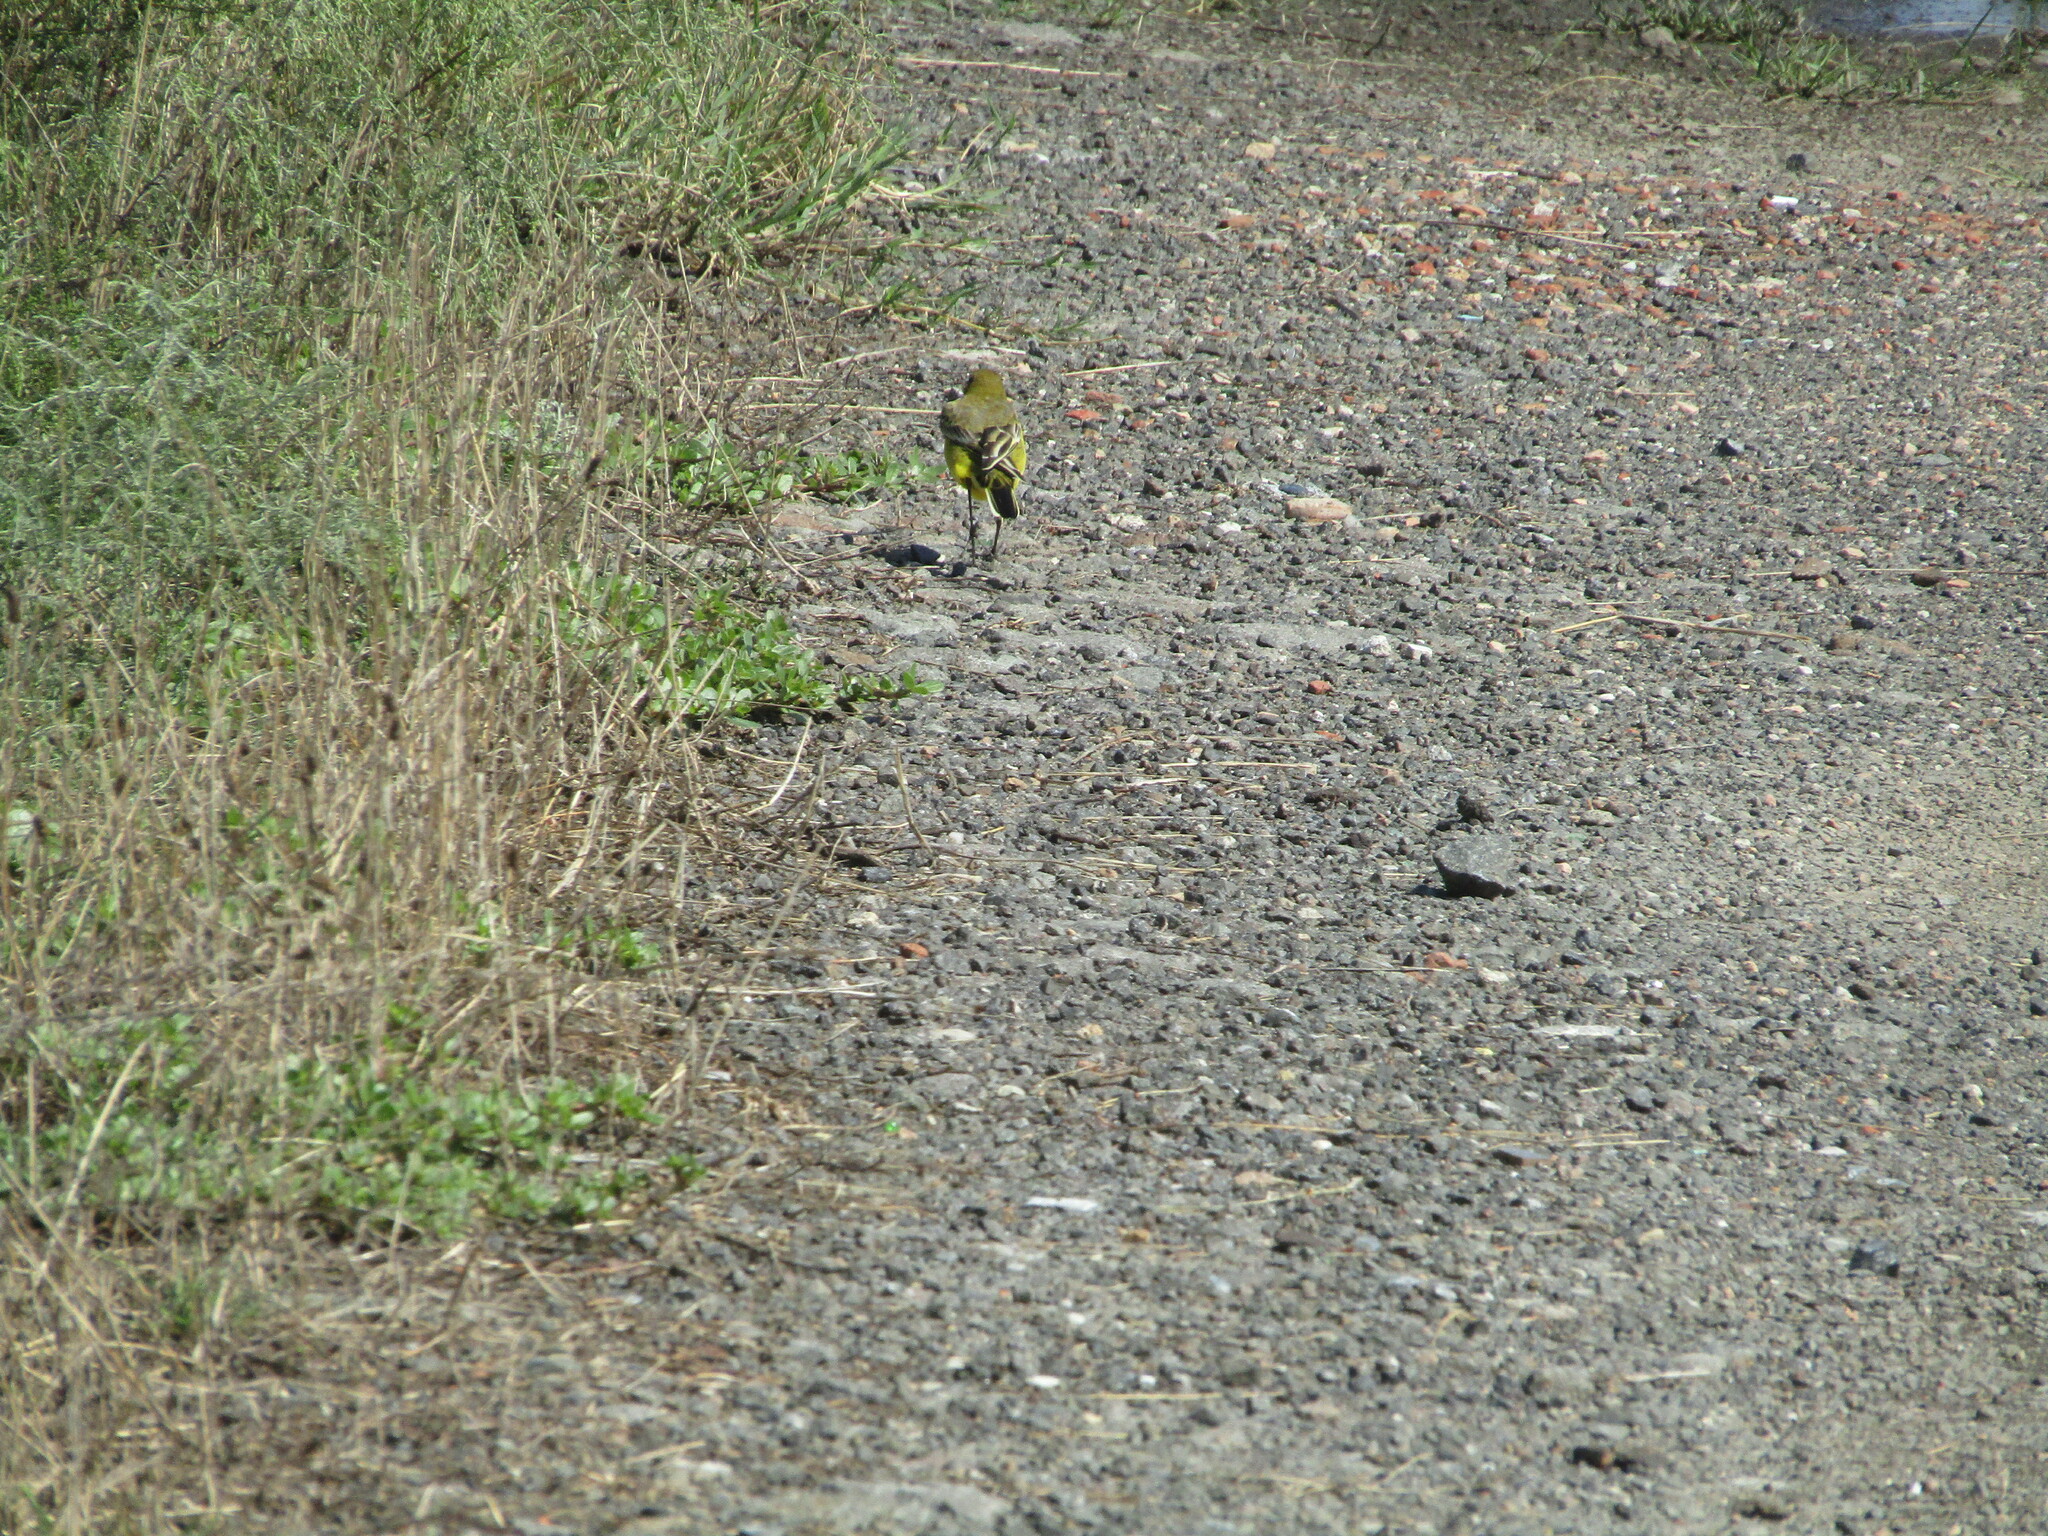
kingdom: Animalia
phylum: Chordata
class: Aves
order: Passeriformes
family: Motacillidae
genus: Motacilla
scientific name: Motacilla flava
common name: Western yellow wagtail
